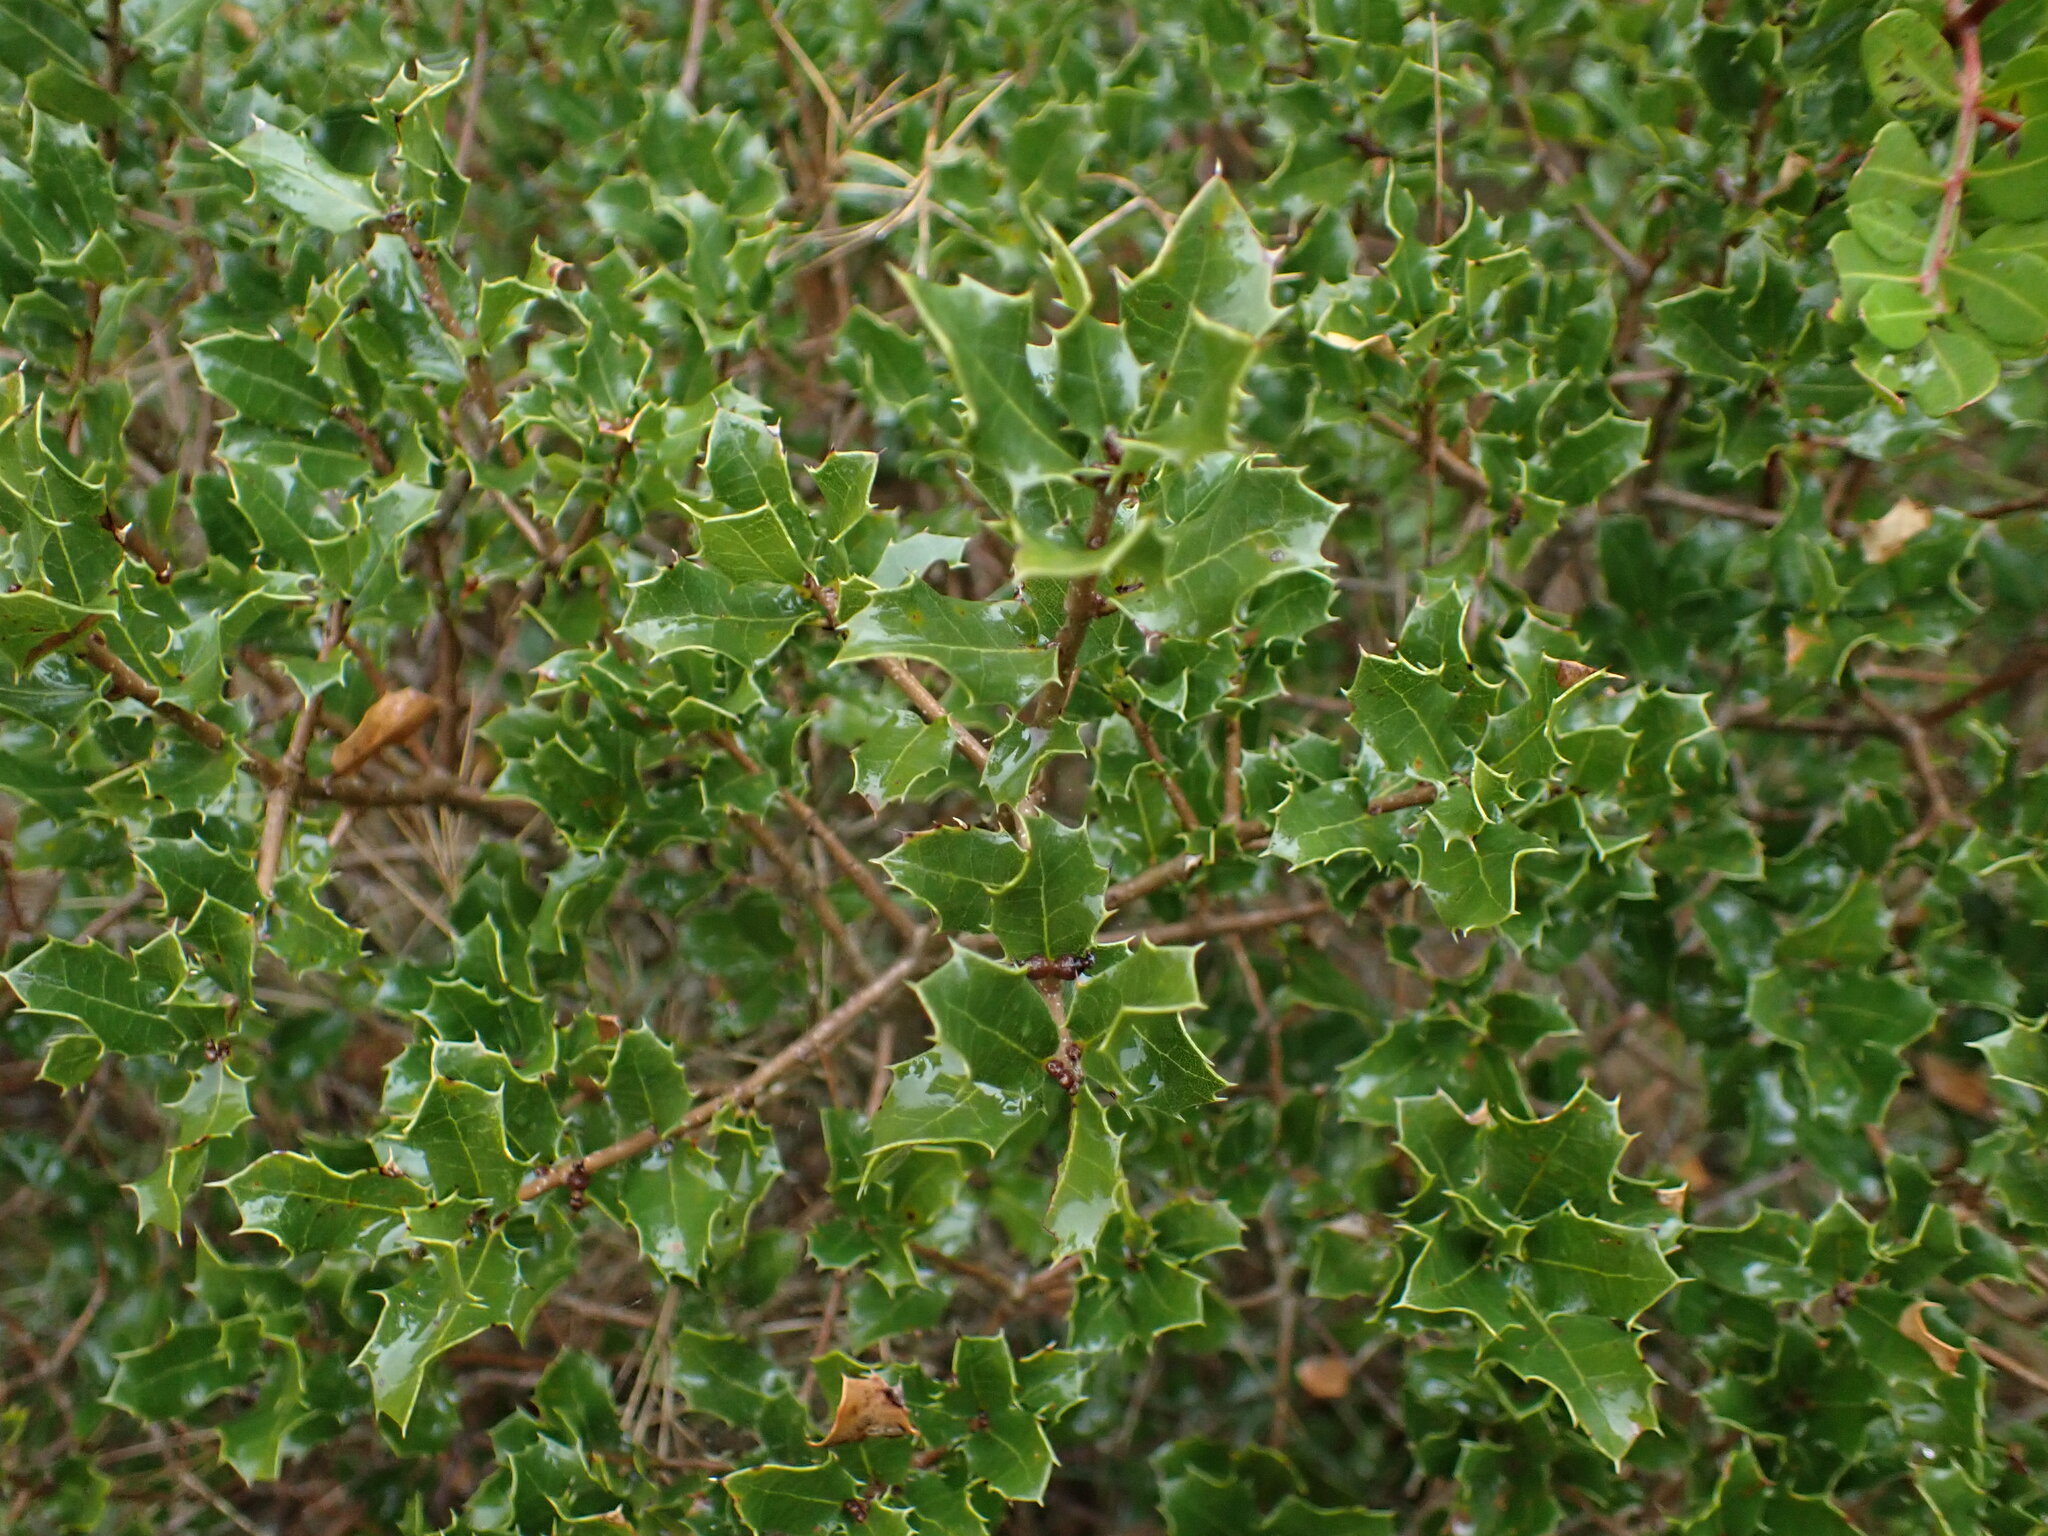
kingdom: Plantae
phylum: Tracheophyta
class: Magnoliopsida
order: Fagales
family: Fagaceae
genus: Quercus
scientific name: Quercus coccifera
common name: Kermes oak
